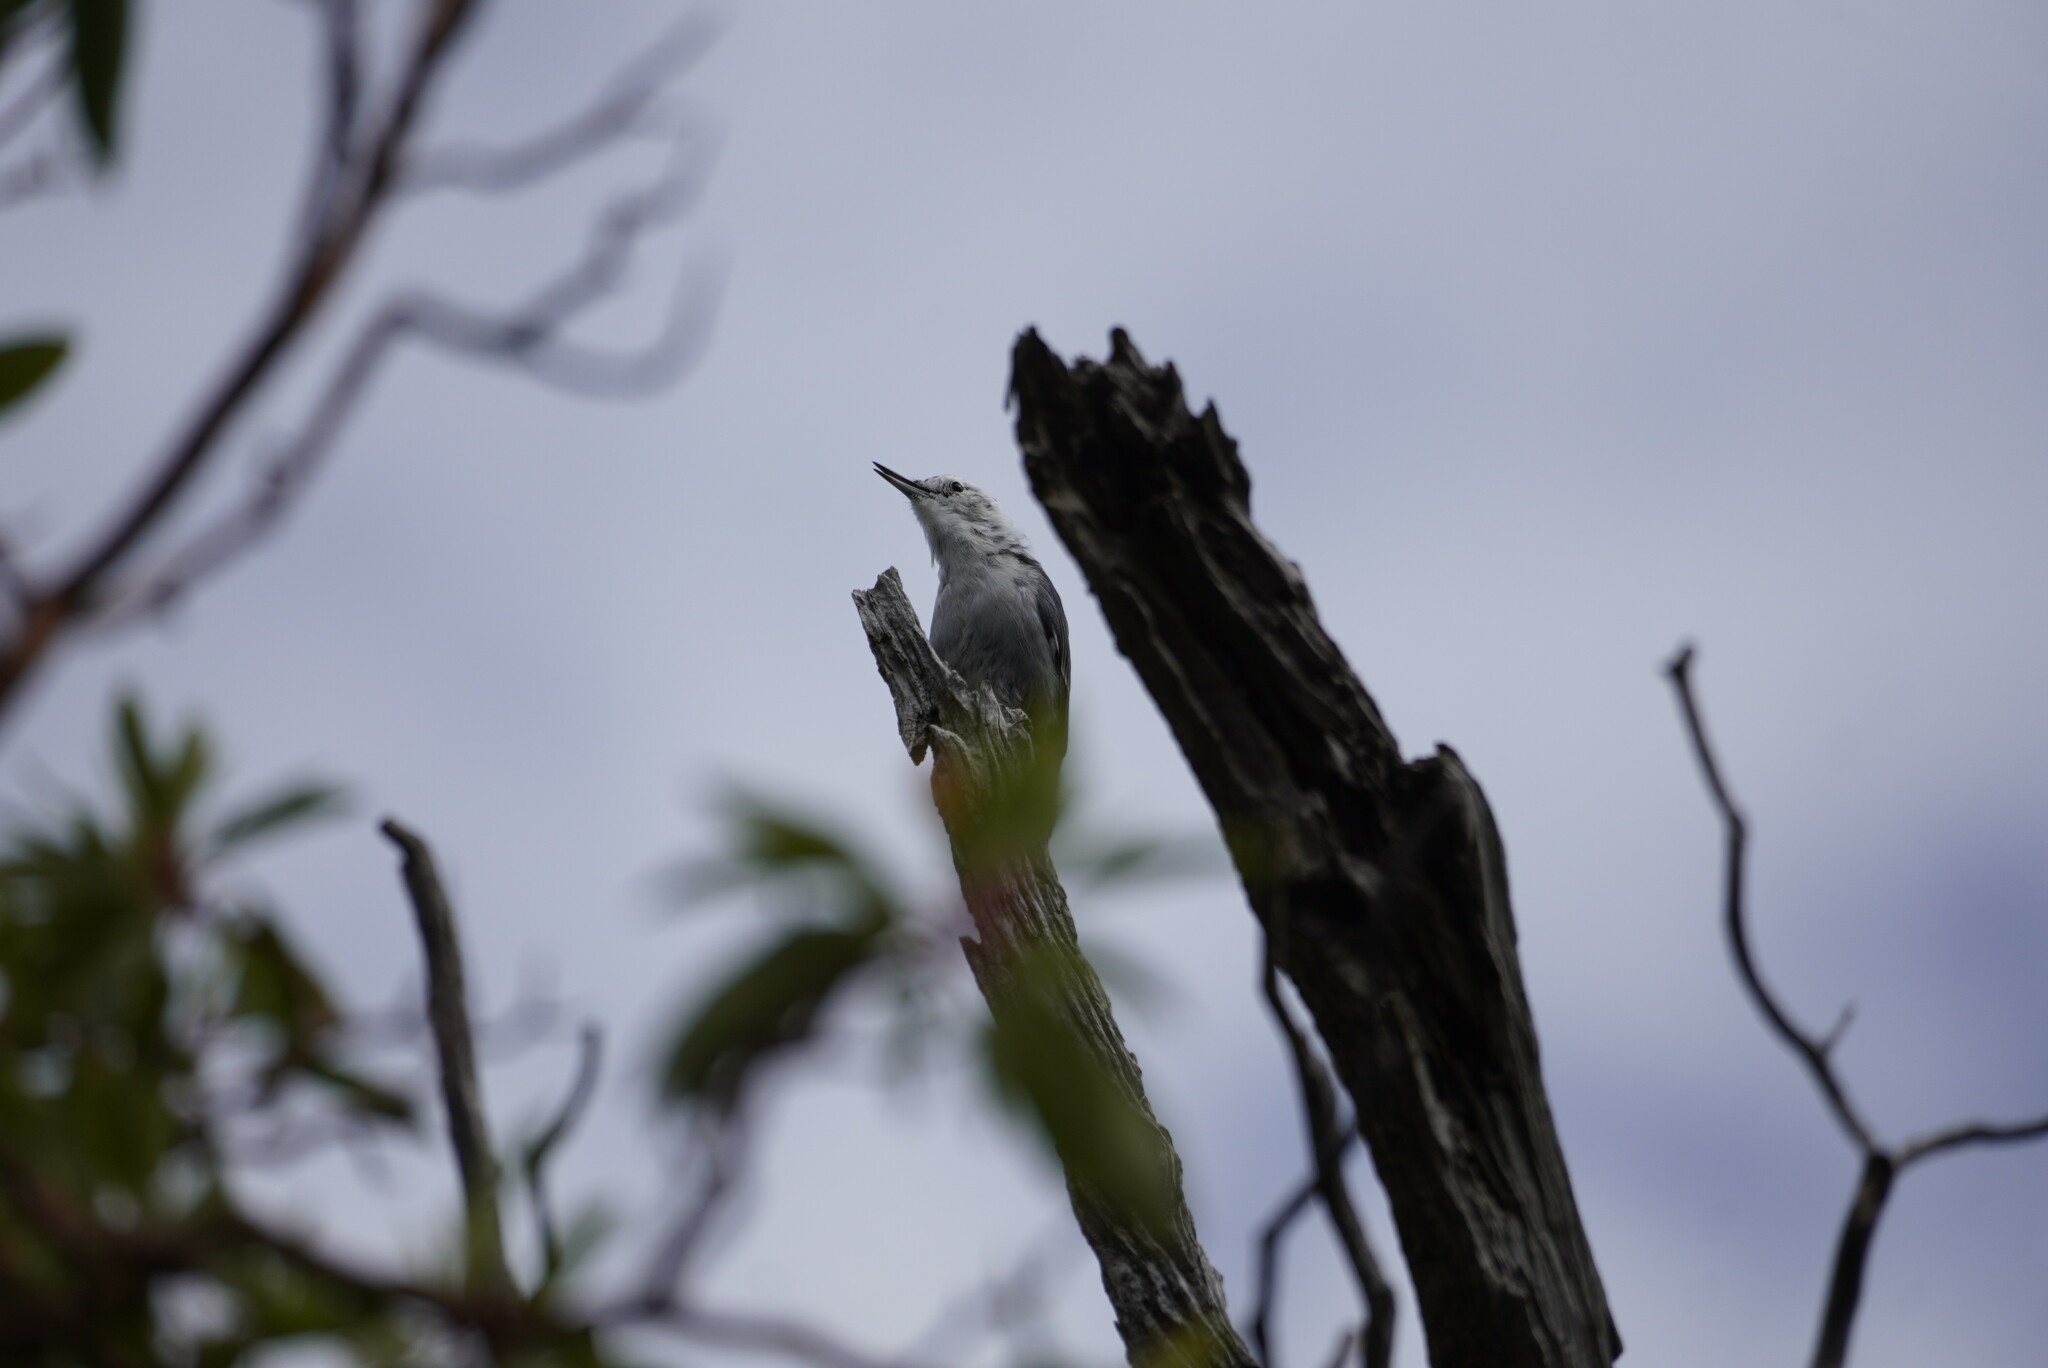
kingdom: Animalia
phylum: Chordata
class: Aves
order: Passeriformes
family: Sittidae
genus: Sitta
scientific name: Sitta carolinensis
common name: White-breasted nuthatch
